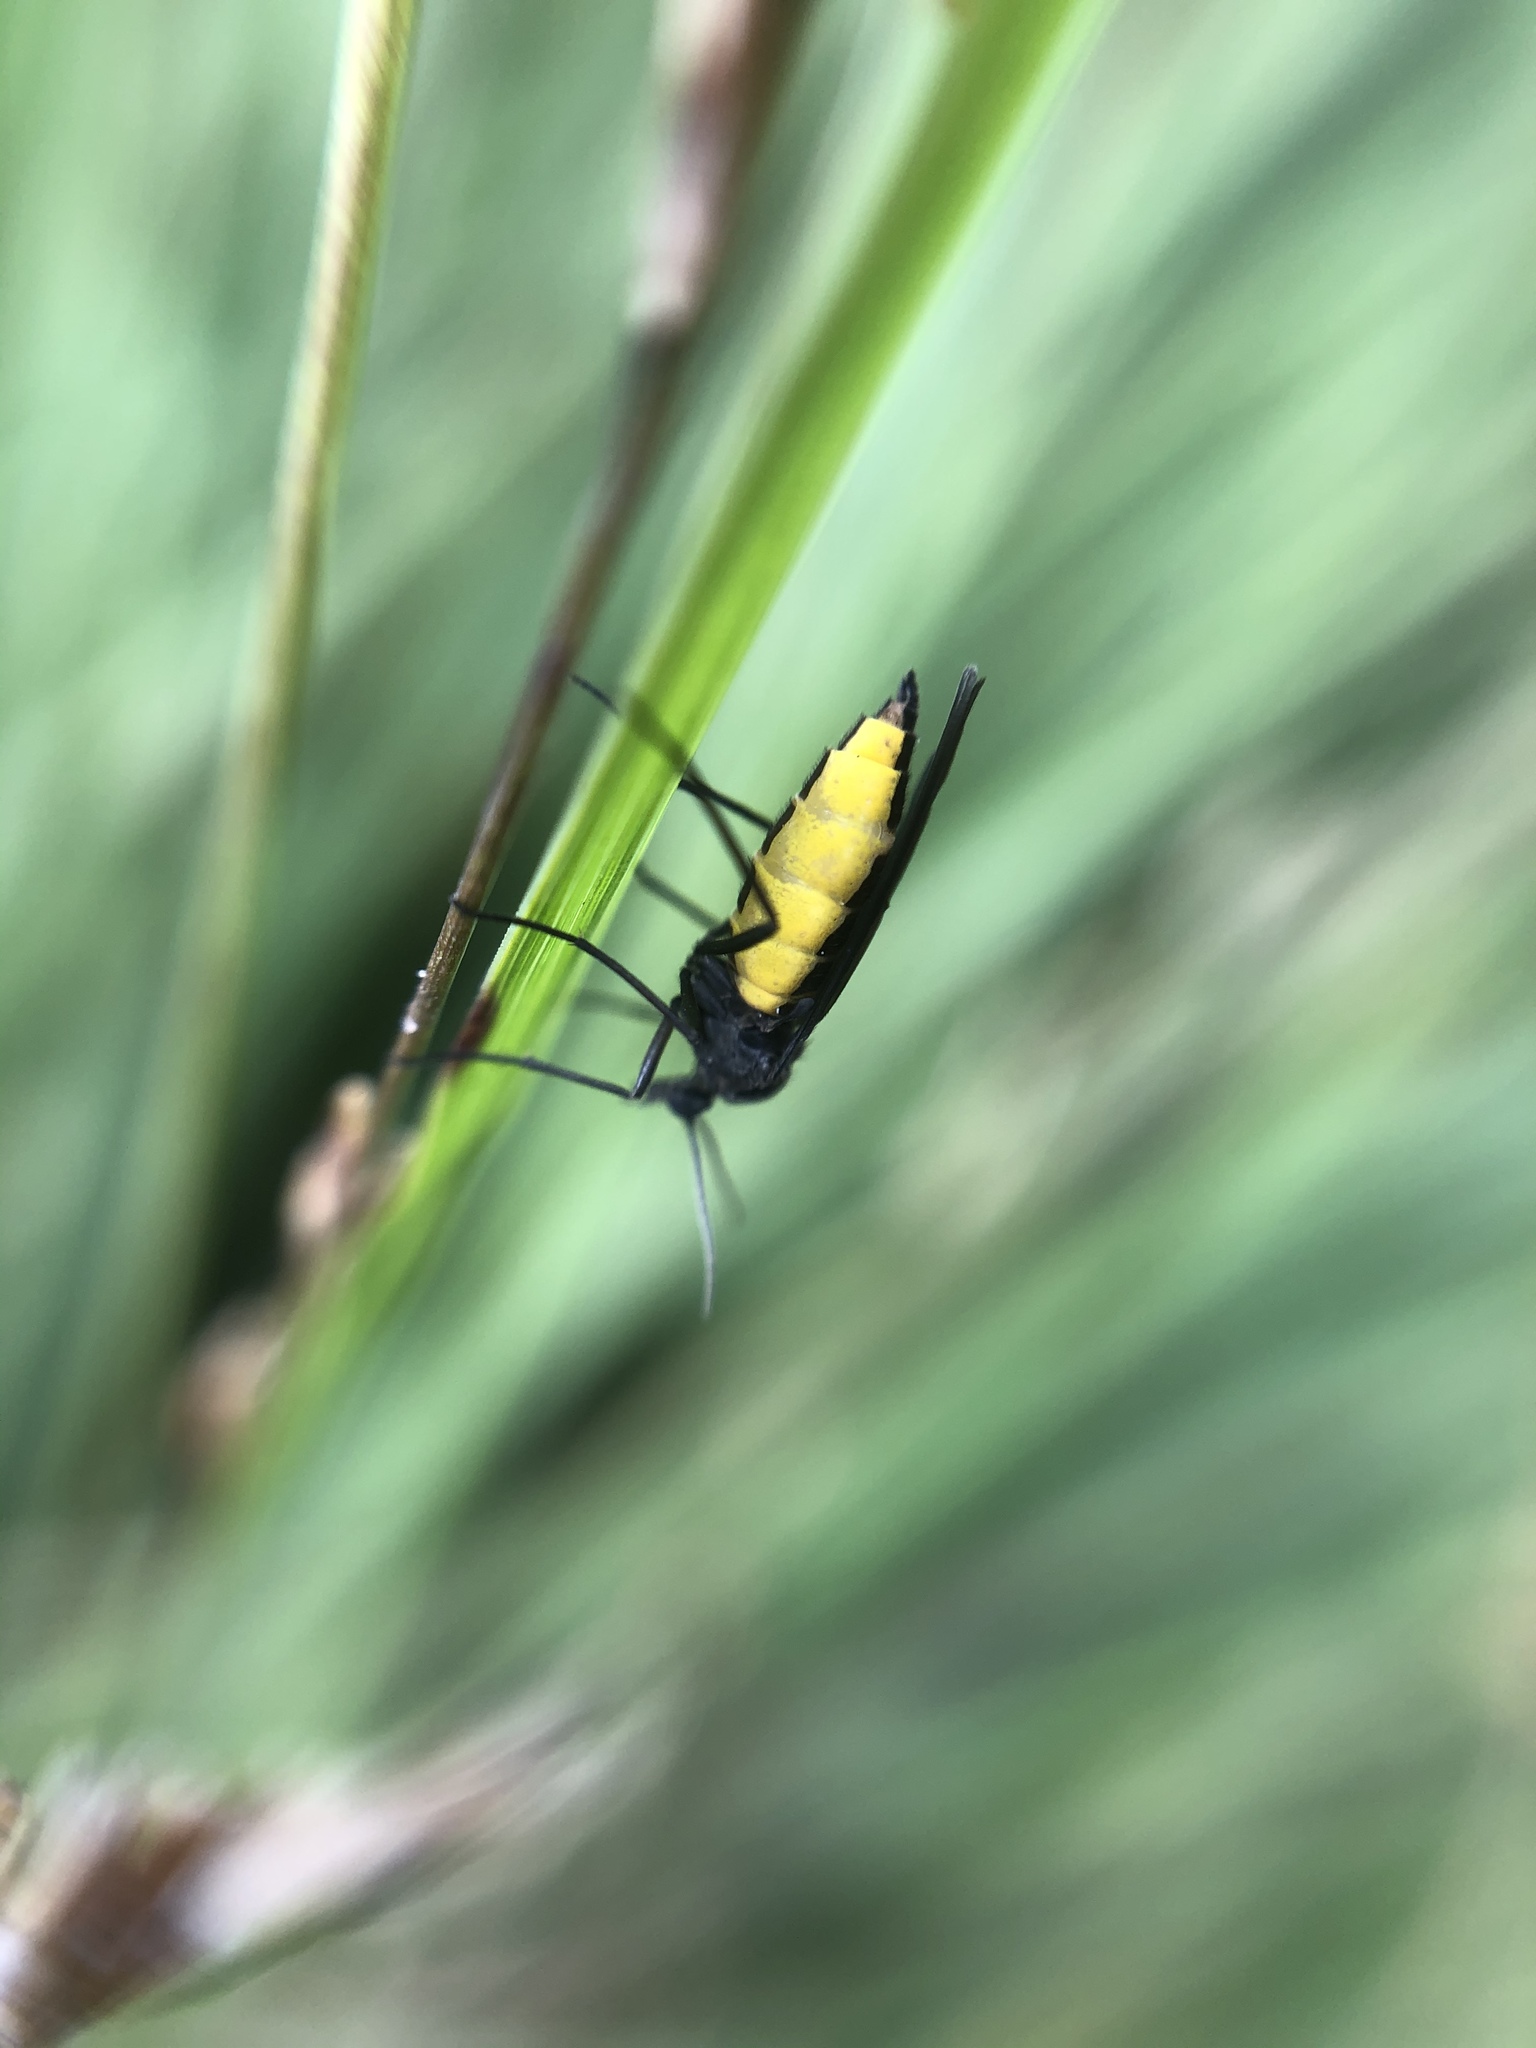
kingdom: Animalia
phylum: Arthropoda
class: Insecta
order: Diptera
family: Sciaridae
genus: Sciara
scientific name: Sciara hemerobioides
